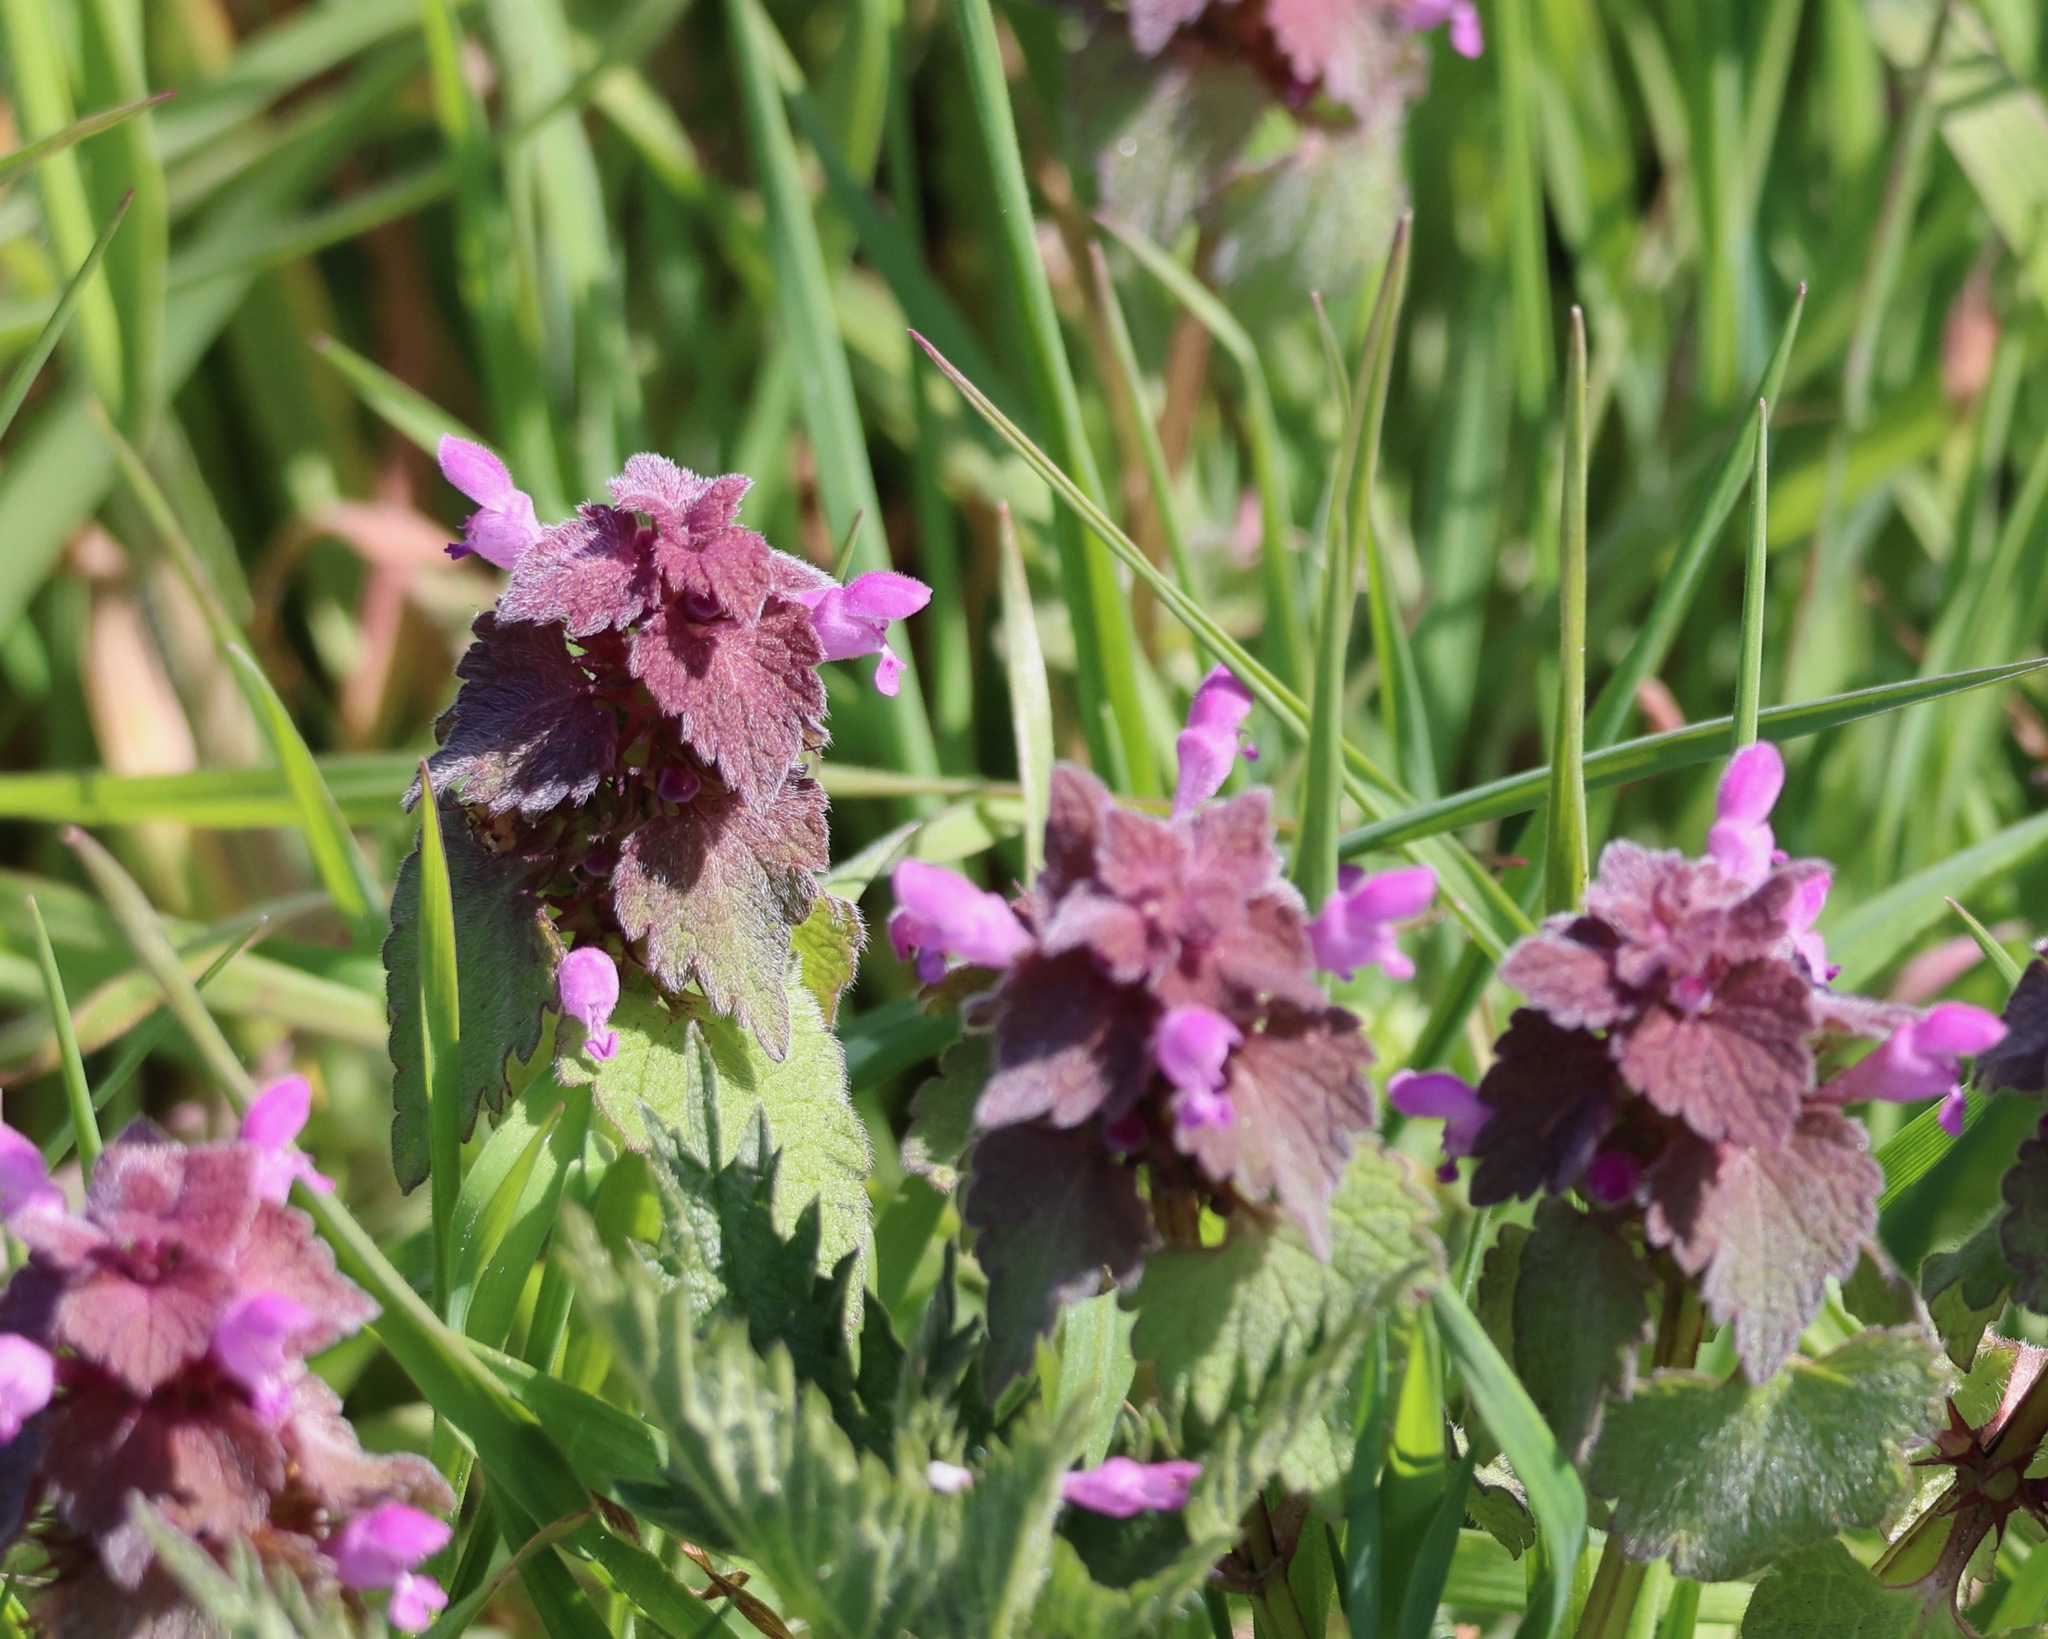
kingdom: Plantae
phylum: Tracheophyta
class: Magnoliopsida
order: Lamiales
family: Lamiaceae
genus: Lamium
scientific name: Lamium purpureum
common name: Red dead-nettle
